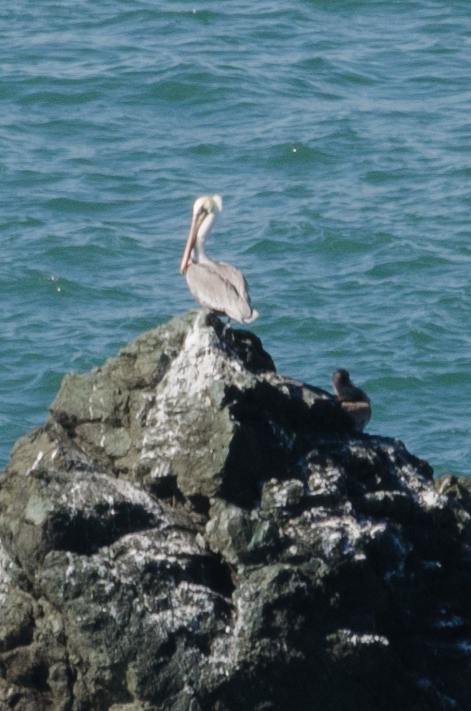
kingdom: Animalia
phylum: Chordata
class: Aves
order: Pelecaniformes
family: Pelecanidae
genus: Pelecanus
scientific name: Pelecanus occidentalis
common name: Brown pelican
